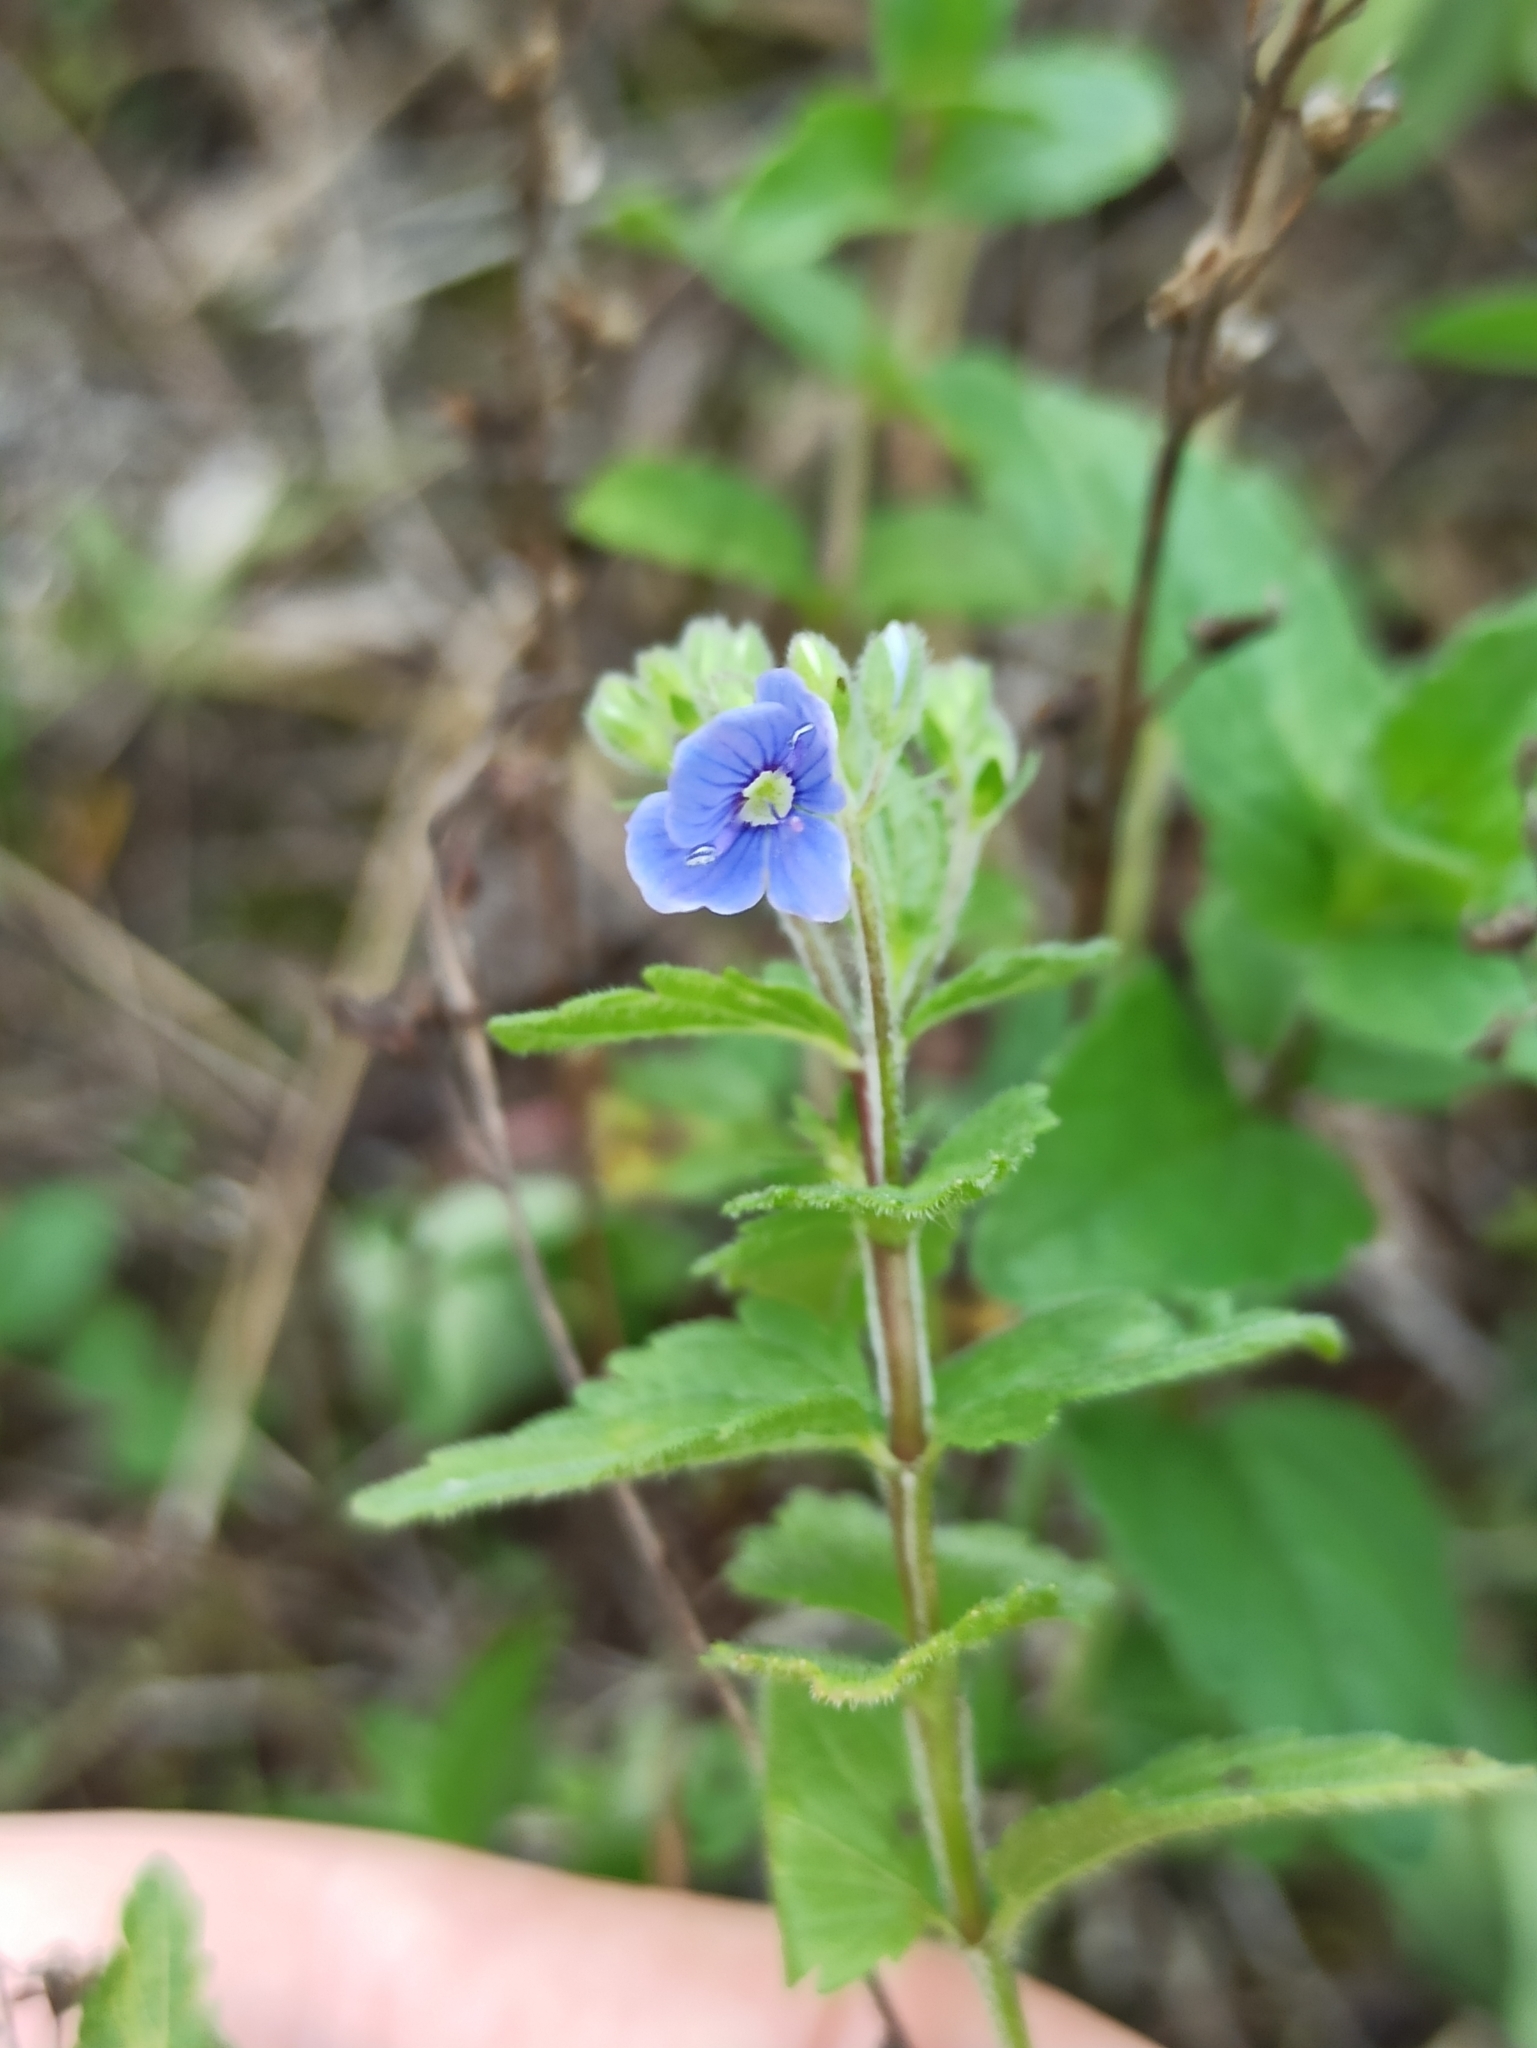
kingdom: Plantae
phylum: Tracheophyta
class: Magnoliopsida
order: Lamiales
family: Plantaginaceae
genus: Veronica
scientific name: Veronica chamaedrys
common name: Germander speedwell
